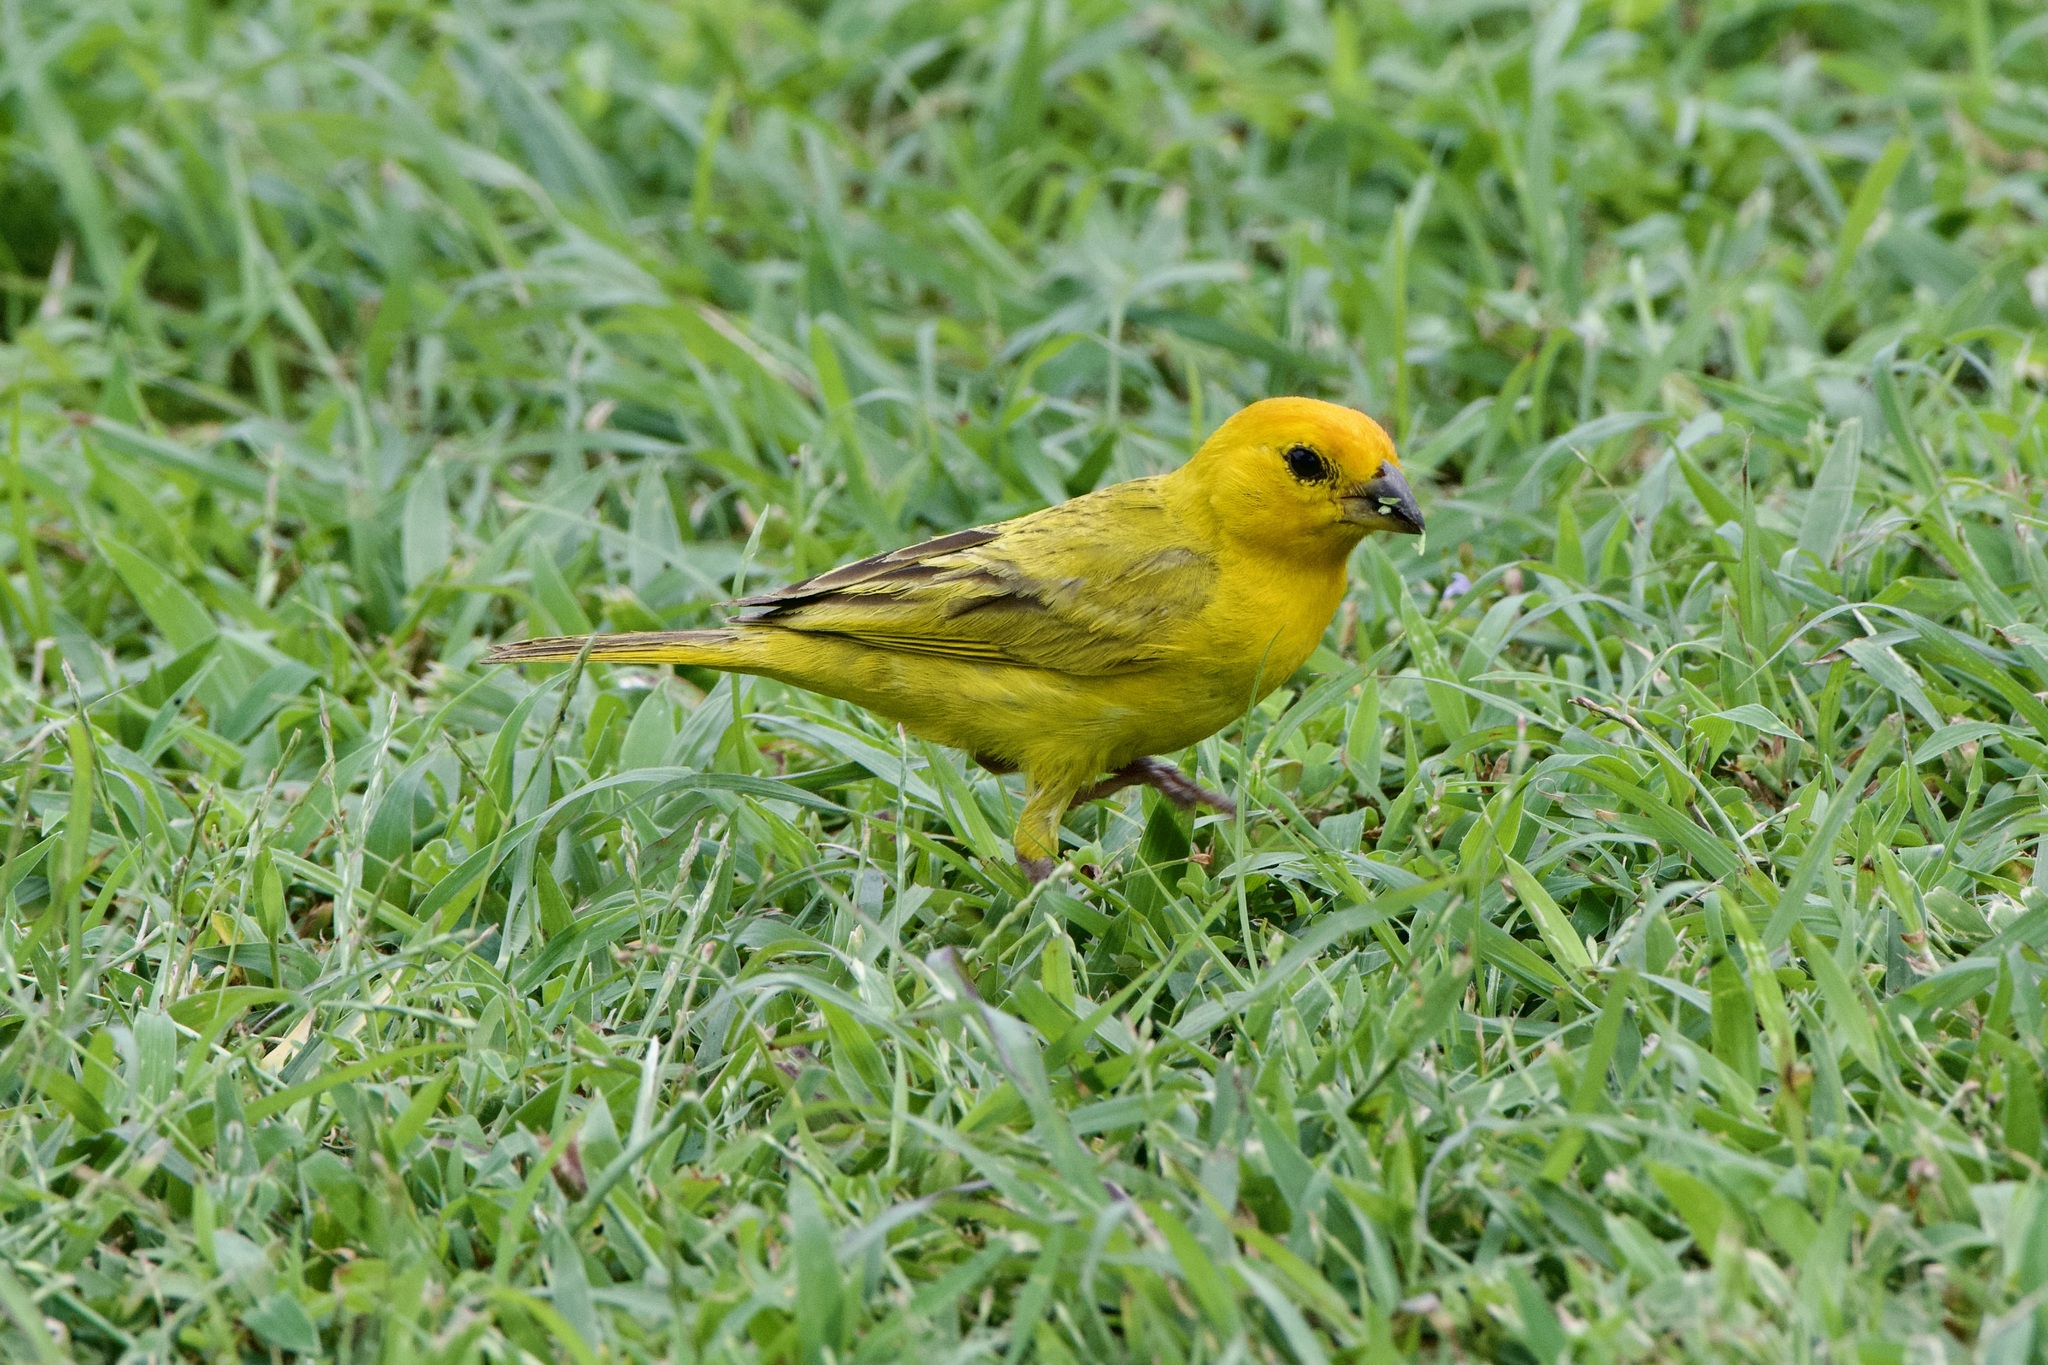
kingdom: Animalia
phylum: Chordata
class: Aves
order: Passeriformes
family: Thraupidae
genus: Sicalis
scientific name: Sicalis flaveola
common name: Saffron finch
